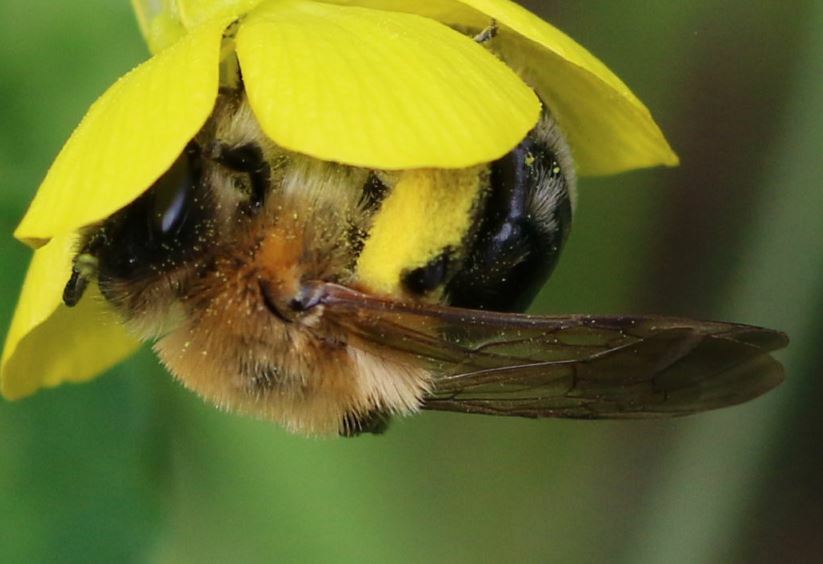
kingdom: Animalia
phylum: Arthropoda
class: Insecta
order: Hymenoptera
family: Andrenidae
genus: Andrena
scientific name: Andrena nitida
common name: Grey-patched mining bee
